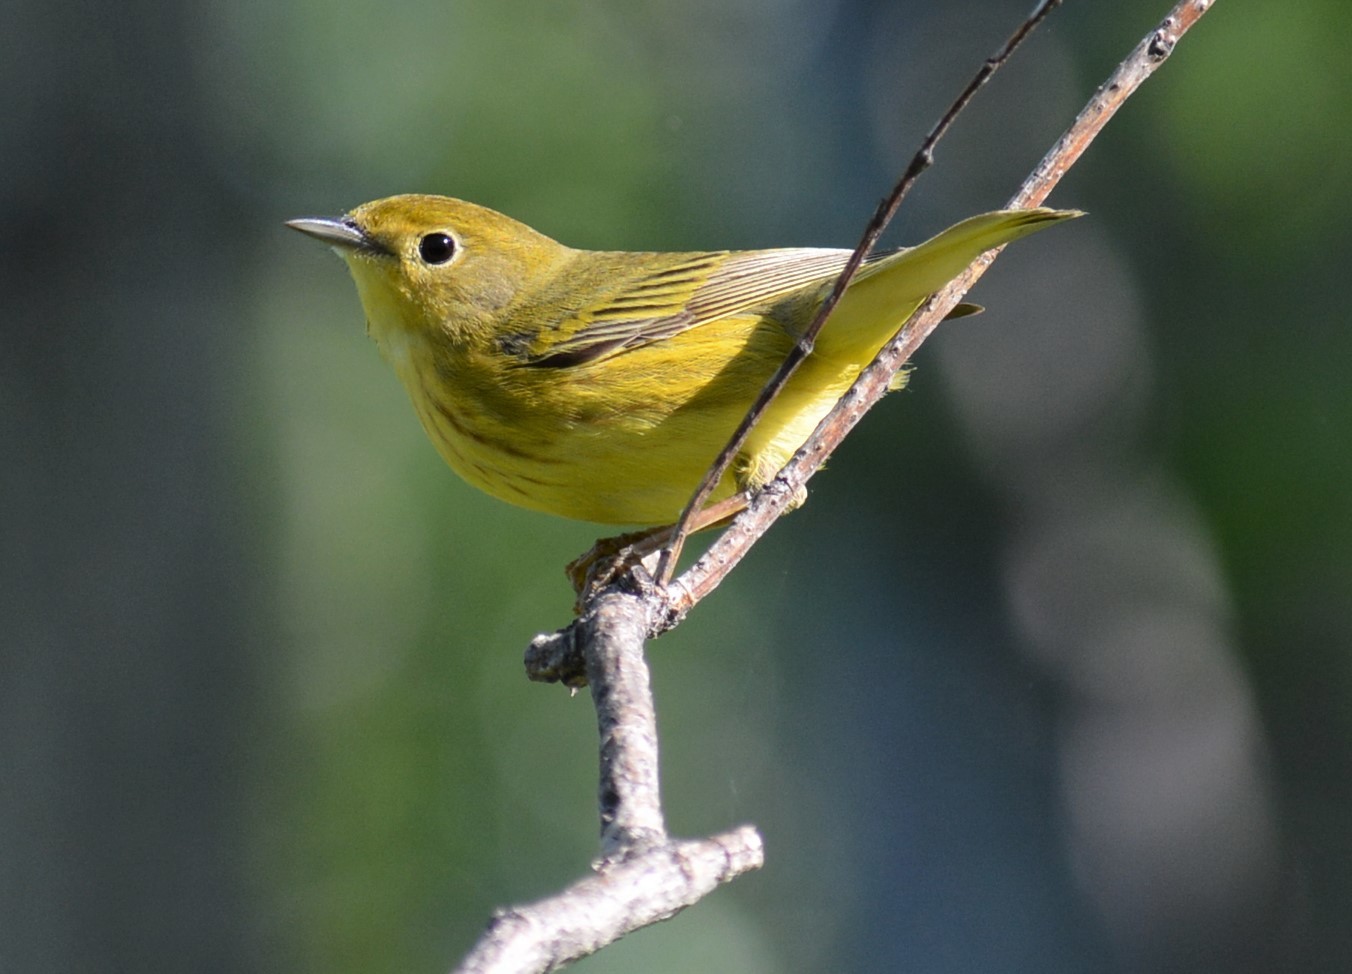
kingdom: Animalia
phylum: Chordata
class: Aves
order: Passeriformes
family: Parulidae
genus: Setophaga
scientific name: Setophaga petechia
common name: Yellow warbler
